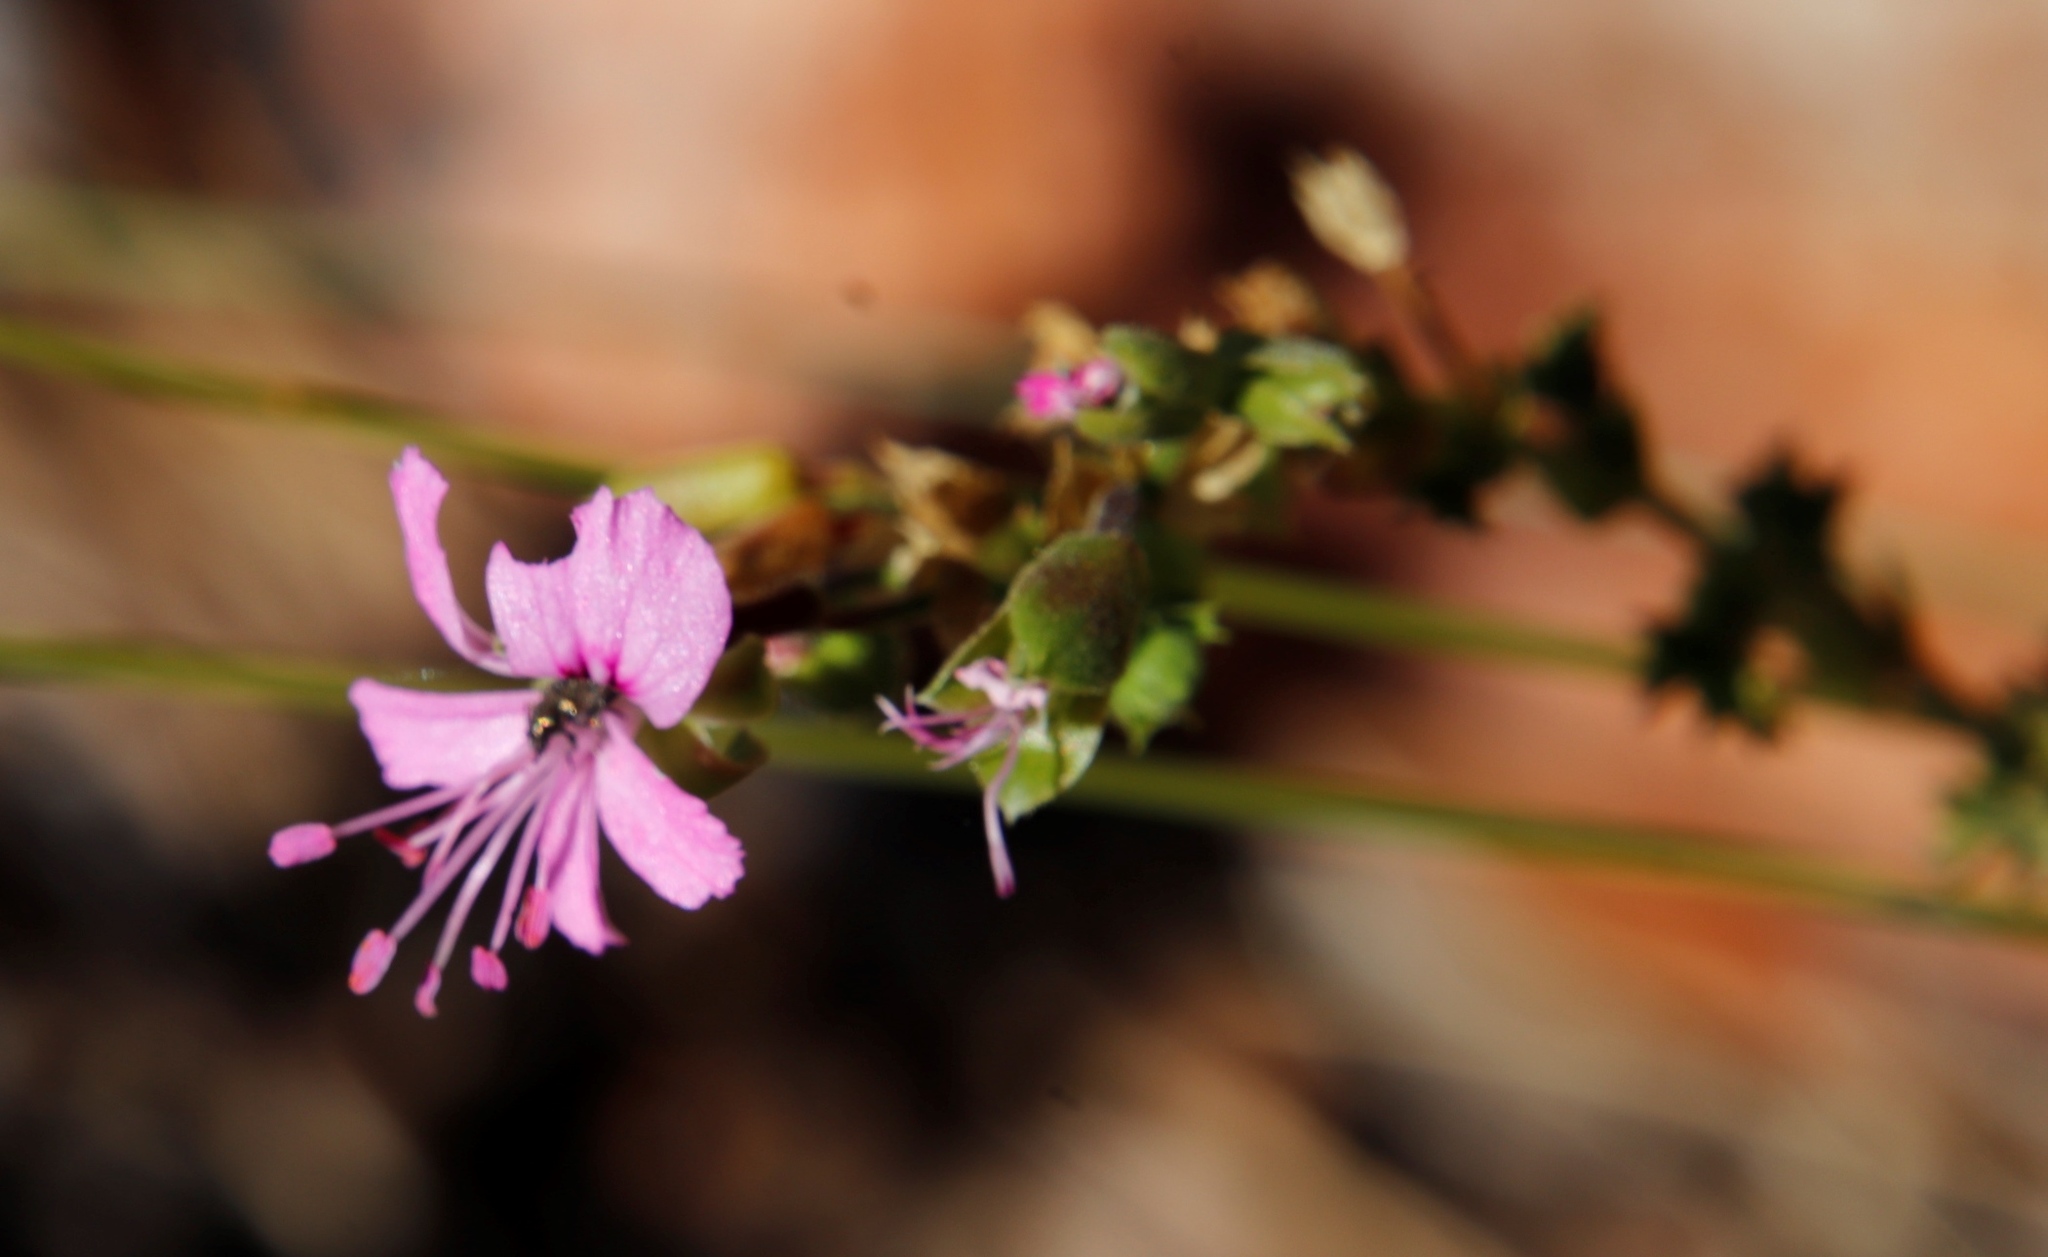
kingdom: Plantae
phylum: Tracheophyta
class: Magnoliopsida
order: Geraniales
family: Geraniaceae
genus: Pelargonium
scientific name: Pelargonium englerianum
